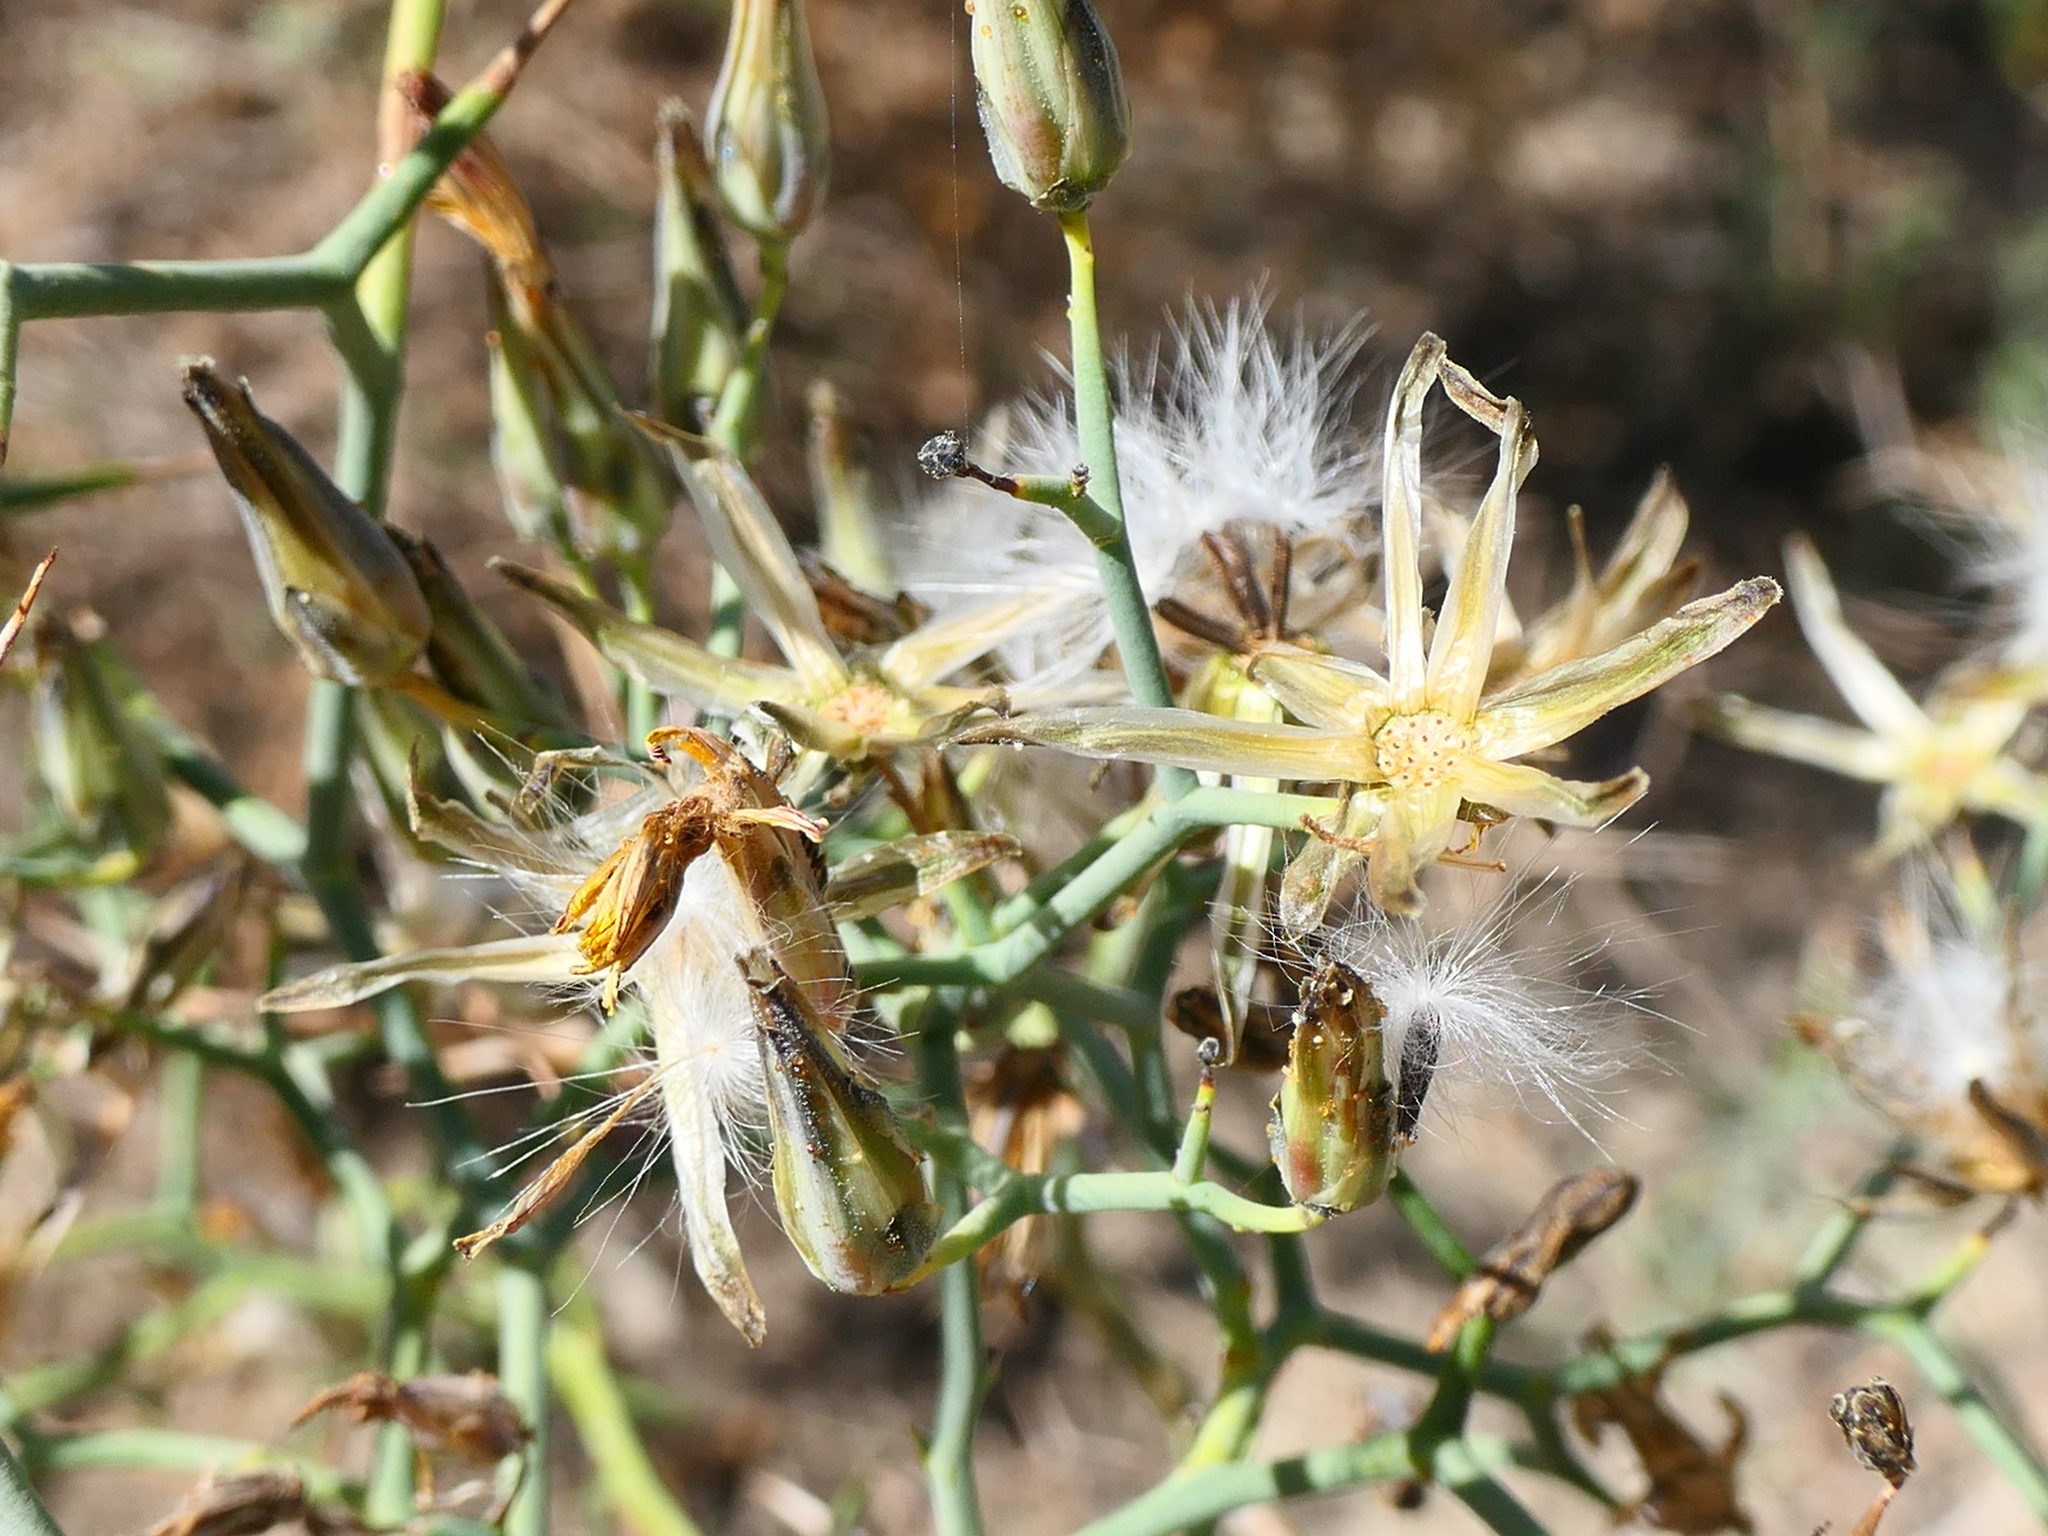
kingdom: Plantae
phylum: Tracheophyta
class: Magnoliopsida
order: Asterales
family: Asteraceae
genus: Launaea
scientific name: Launaea arborescens
